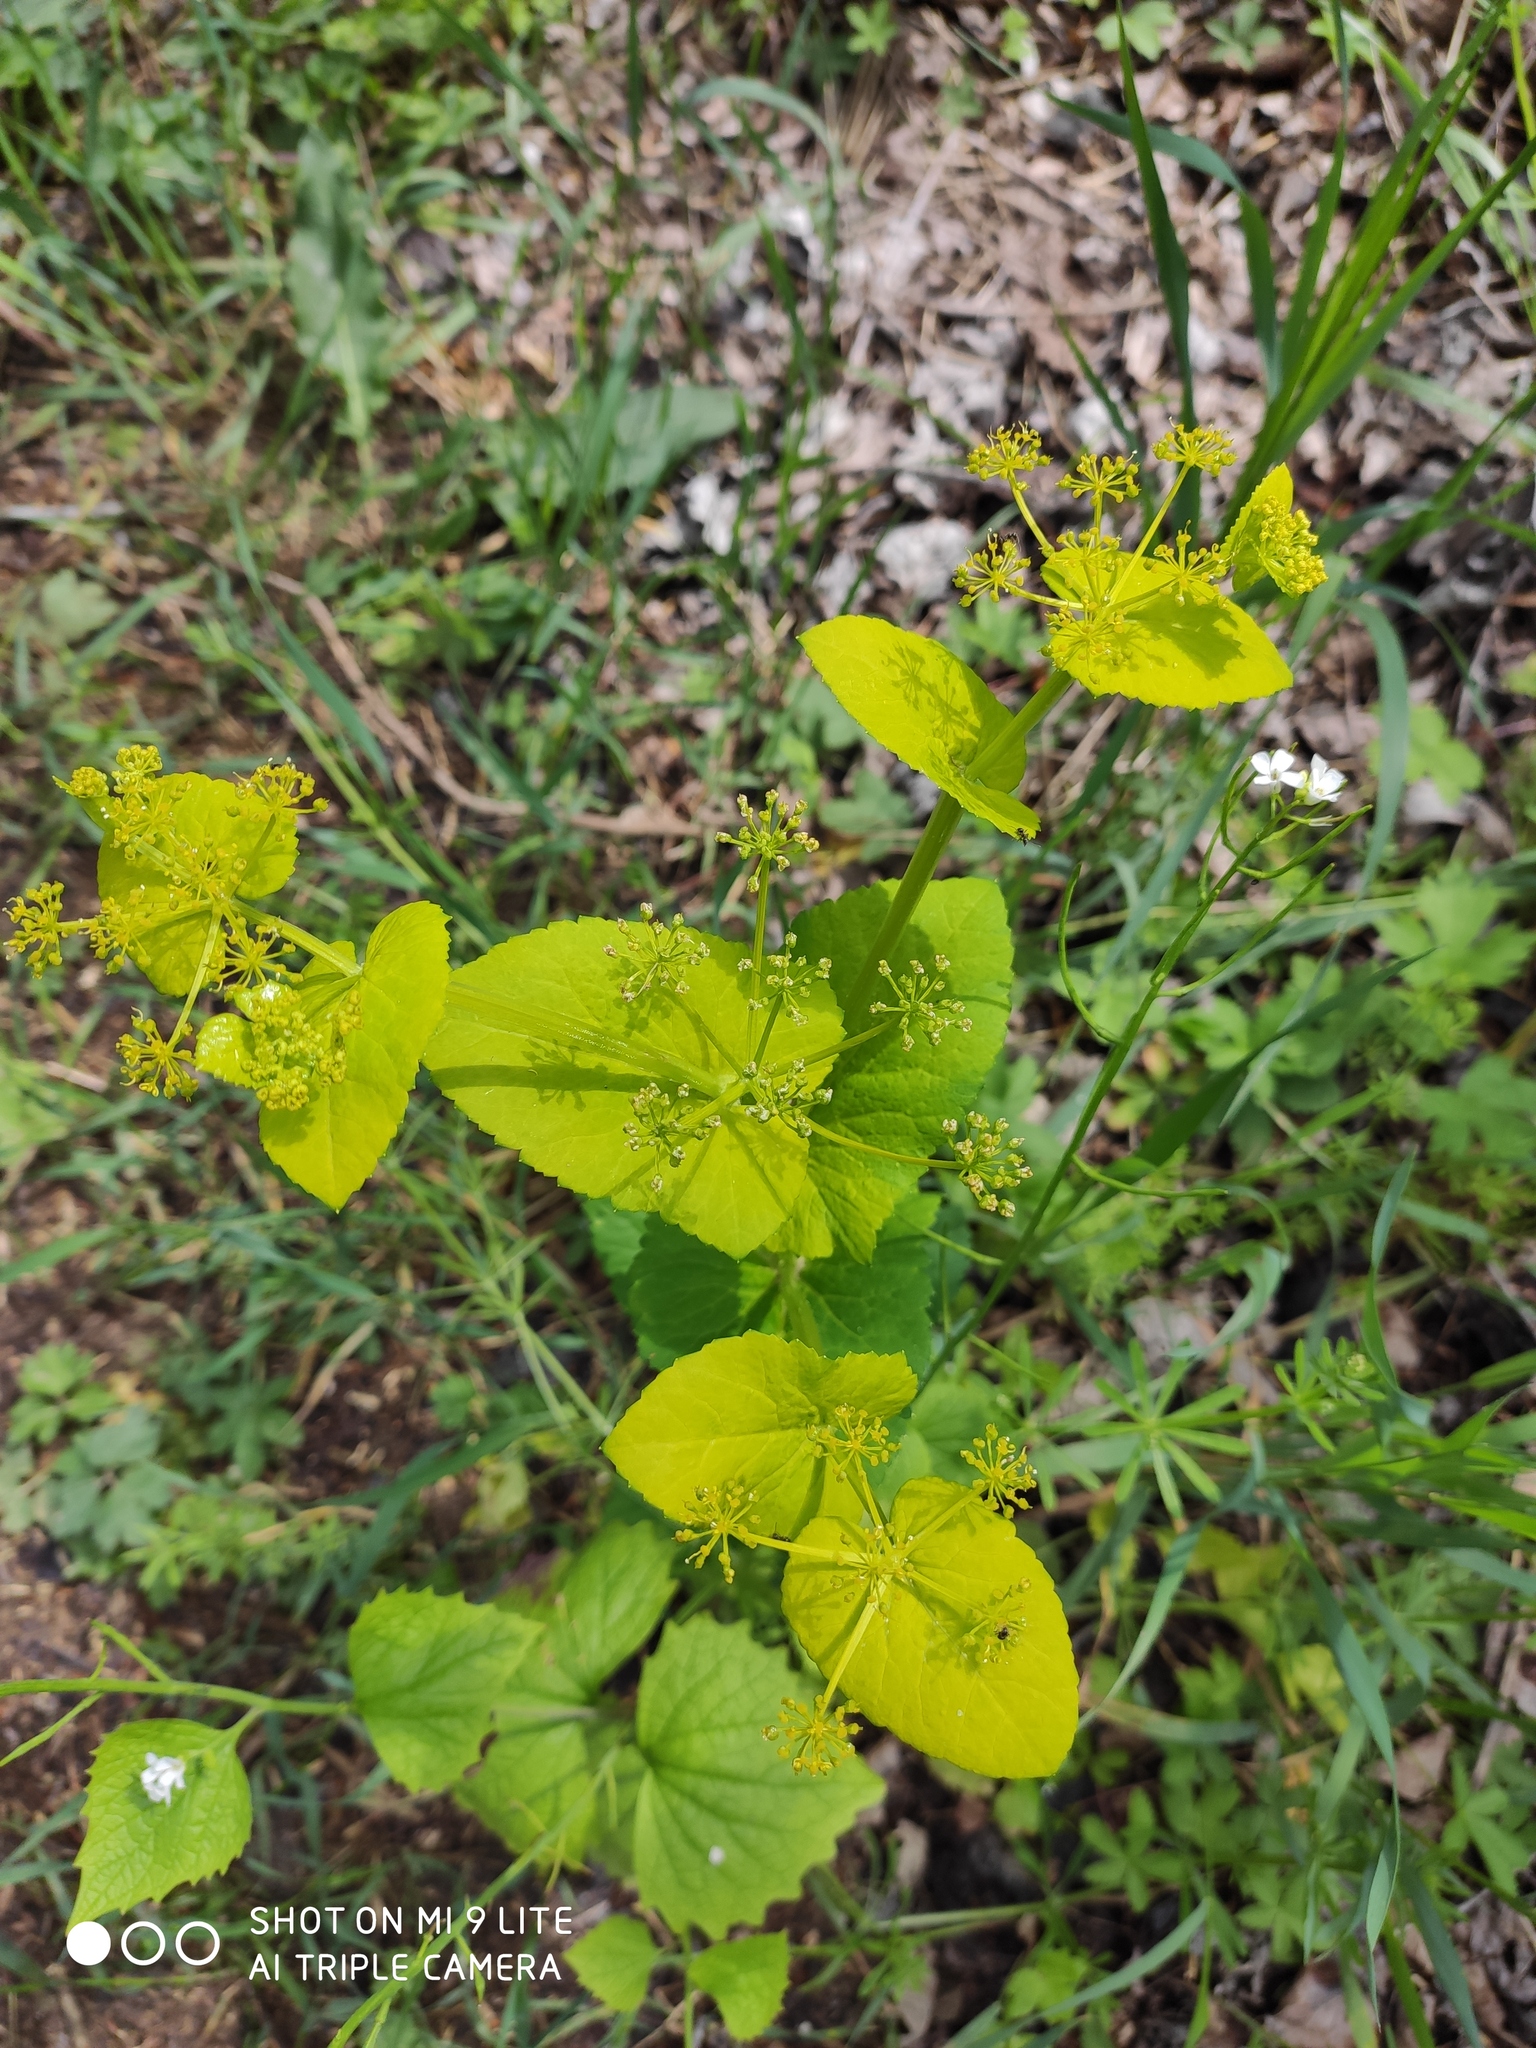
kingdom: Plantae
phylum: Tracheophyta
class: Magnoliopsida
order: Apiales
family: Apiaceae
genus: Smyrnium
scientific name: Smyrnium perfoliatum
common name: Perfoliate alexanders
